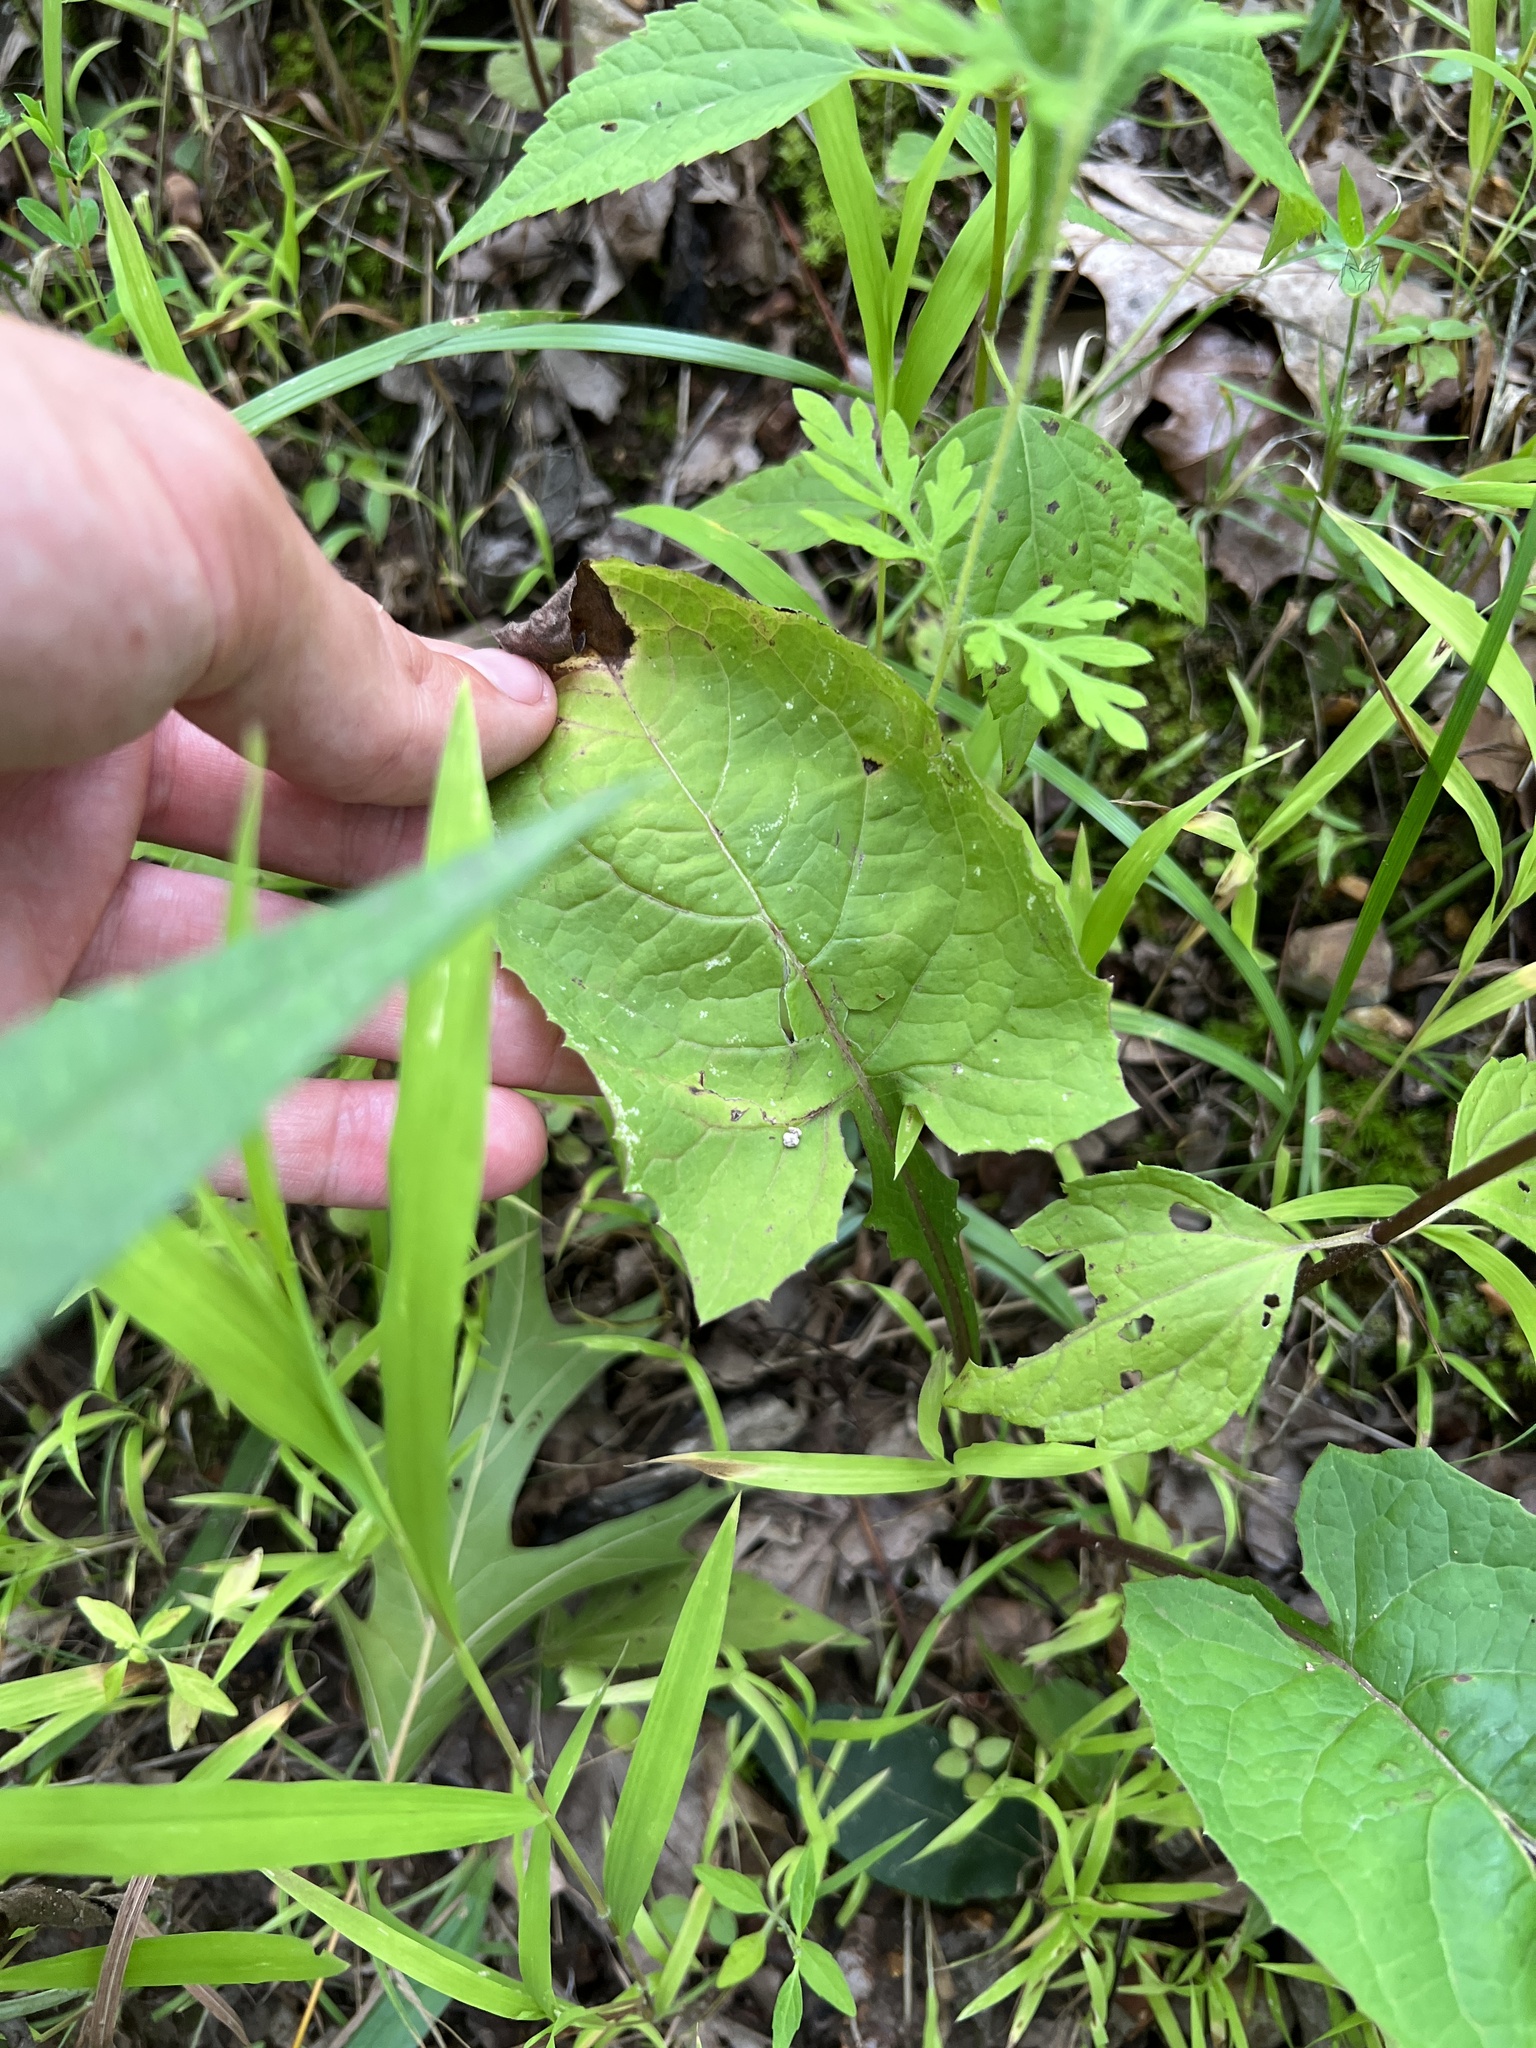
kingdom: Plantae
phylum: Tracheophyta
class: Magnoliopsida
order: Asterales
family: Asteraceae
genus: Nabalus
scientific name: Nabalus crepidineus
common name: Nodding rattlesnakeroot
